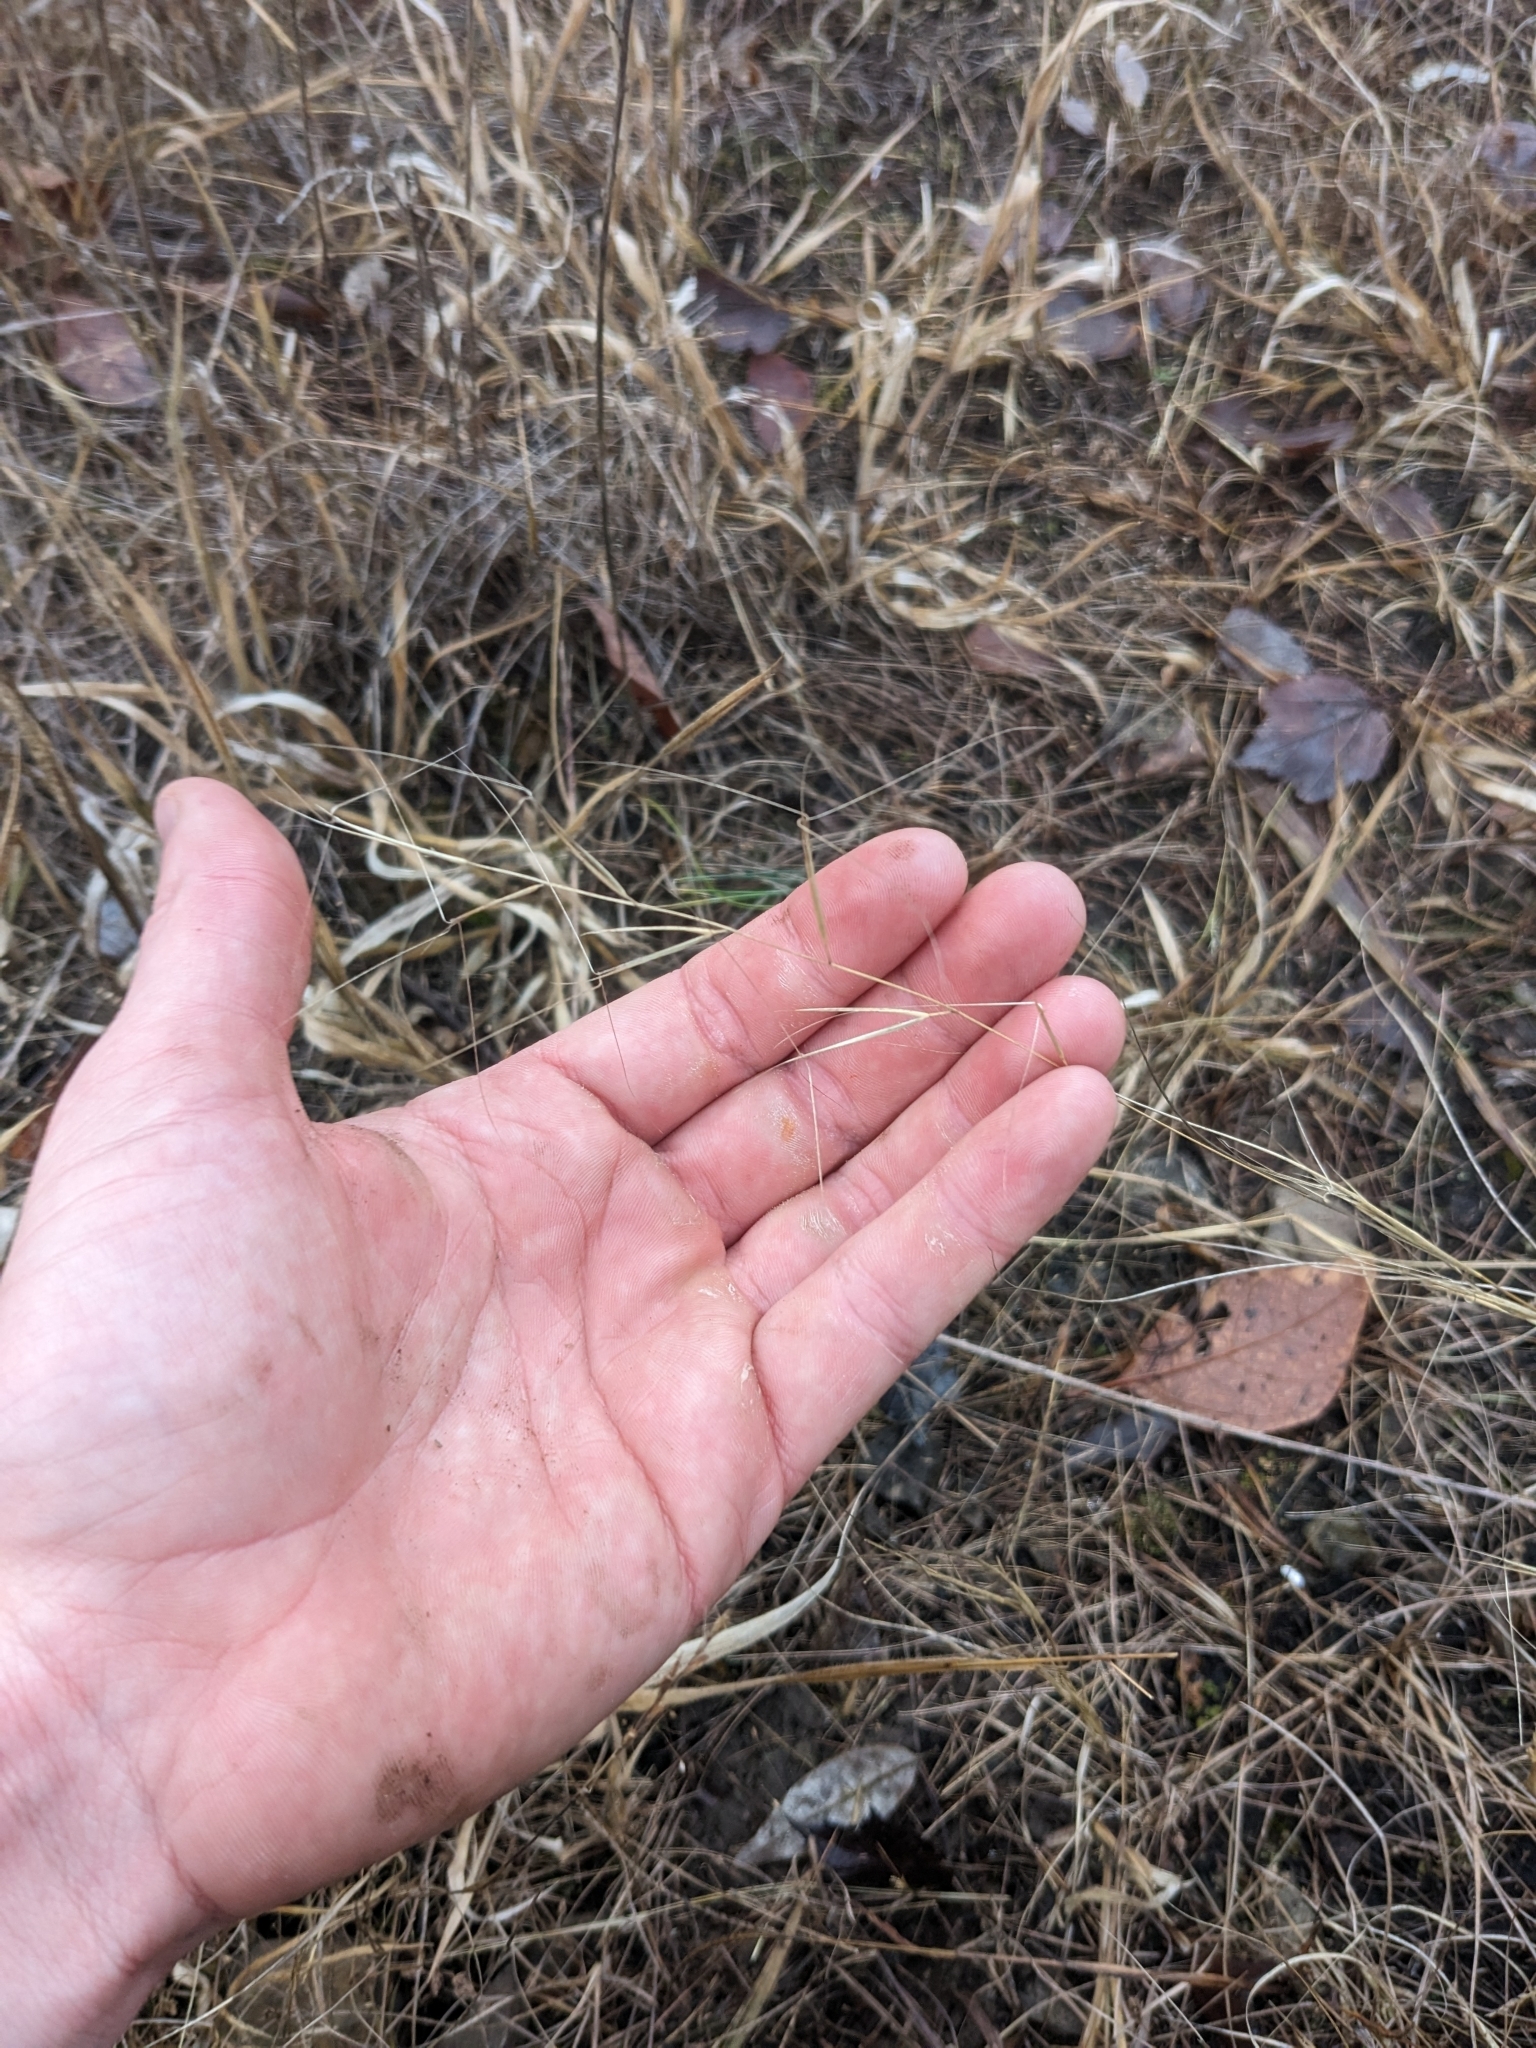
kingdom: Plantae
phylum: Tracheophyta
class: Liliopsida
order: Poales
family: Poaceae
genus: Aristida
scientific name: Aristida oligantha
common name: Few-flowered aristida
